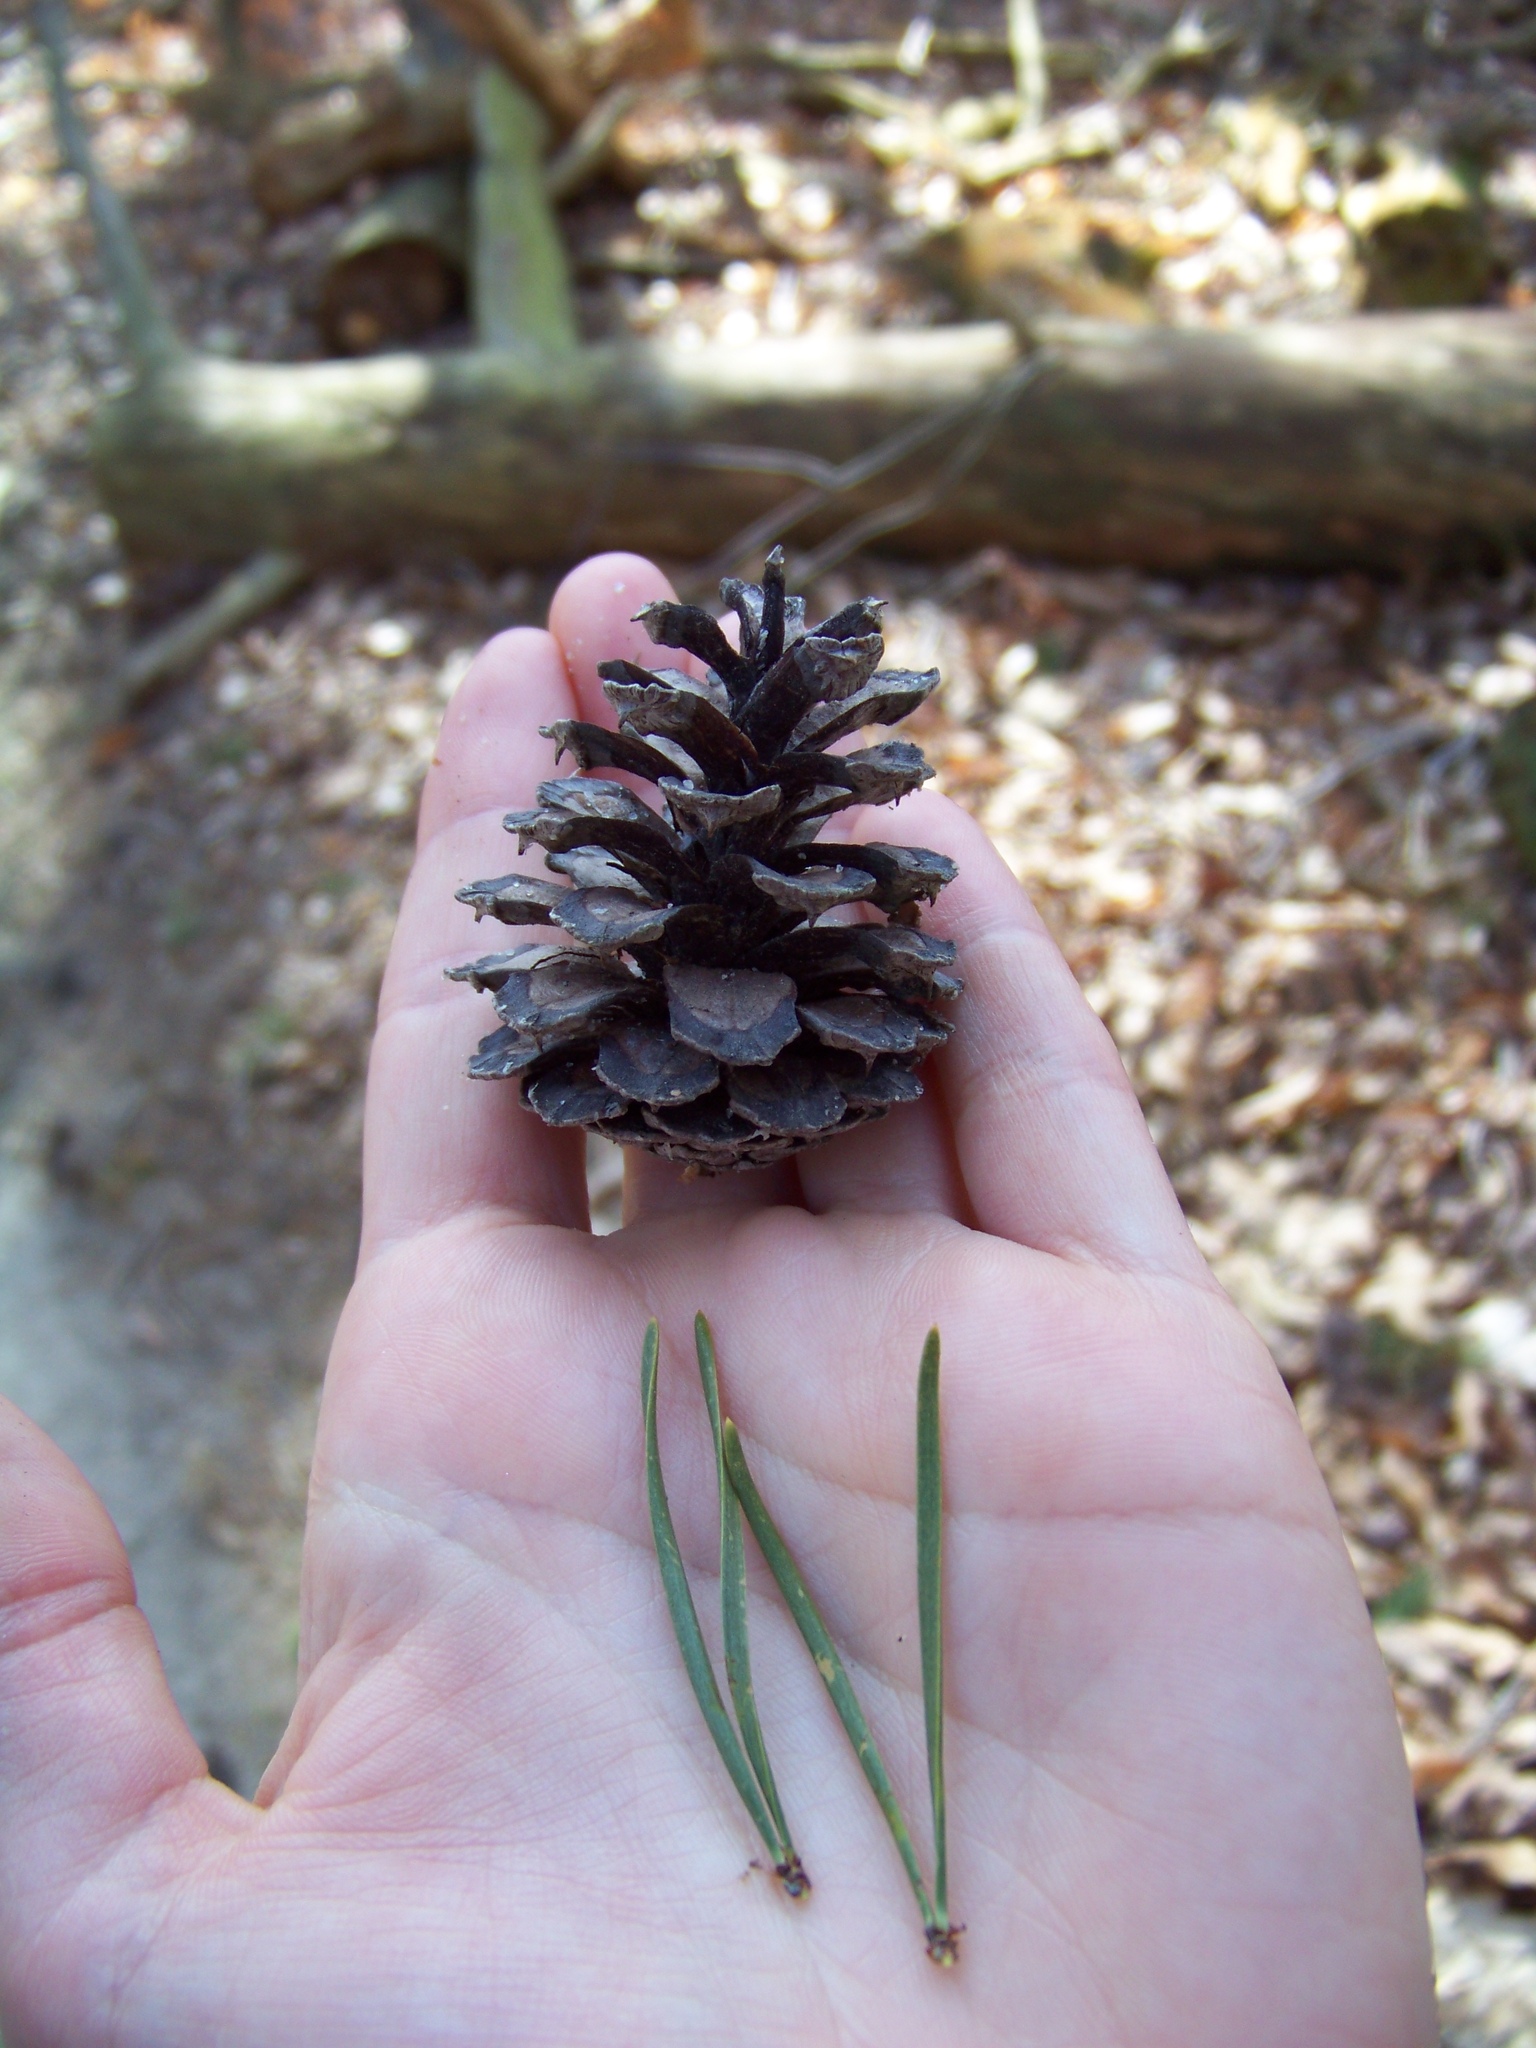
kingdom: Plantae
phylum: Tracheophyta
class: Pinopsida
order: Pinales
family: Pinaceae
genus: Pinus
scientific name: Pinus virginiana
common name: Scrub pine
